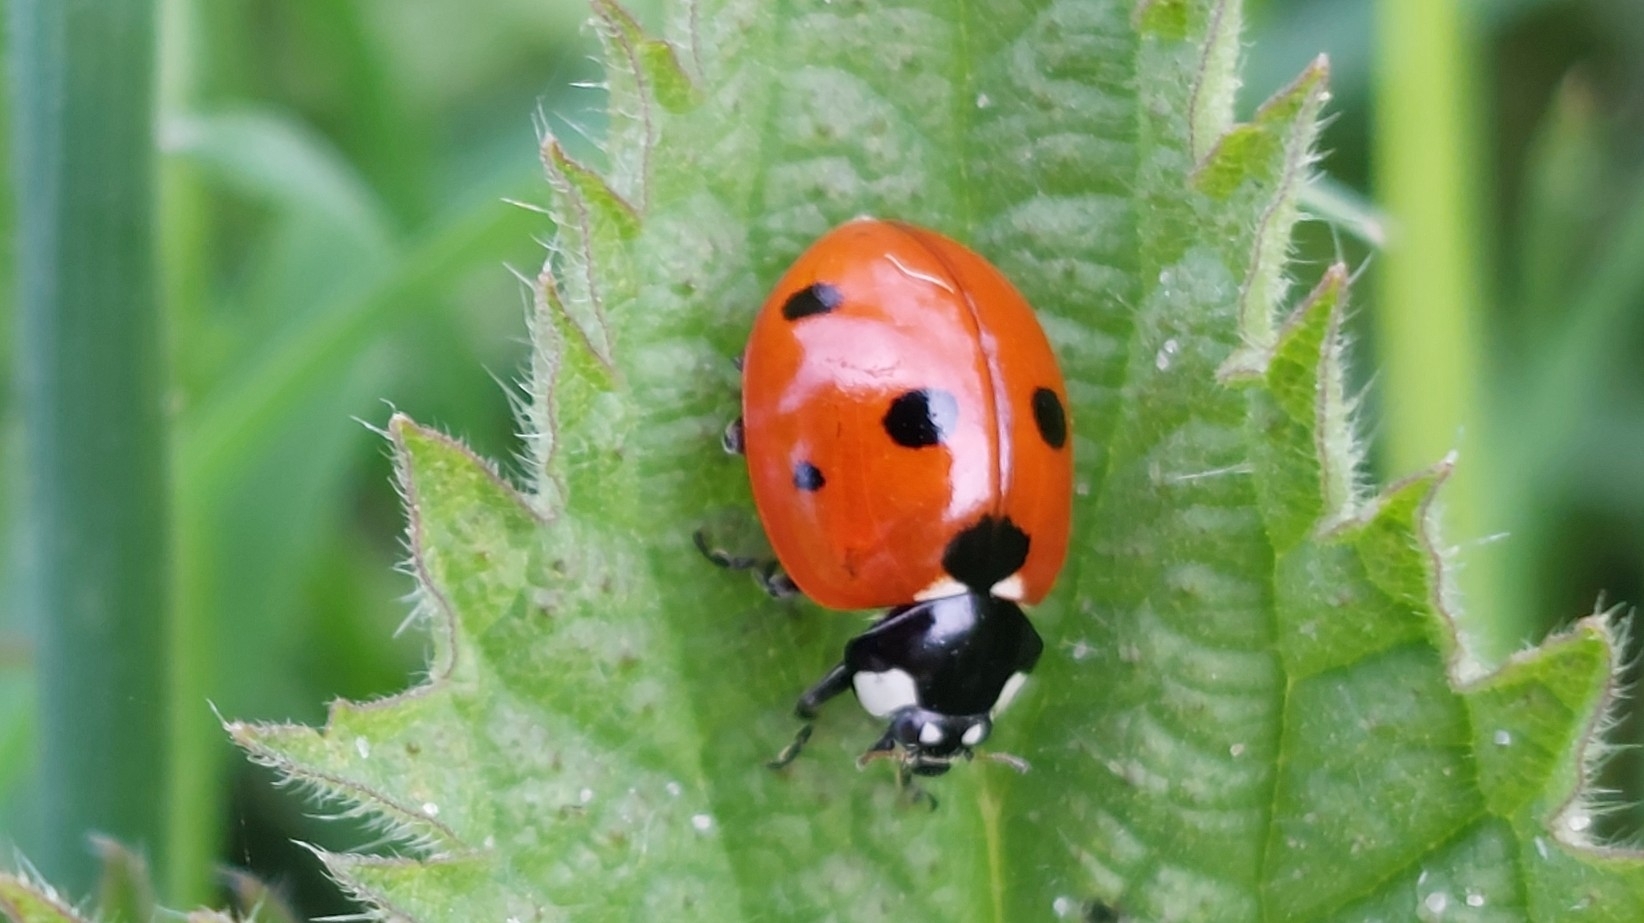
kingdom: Animalia
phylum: Arthropoda
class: Insecta
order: Coleoptera
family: Coccinellidae
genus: Coccinella
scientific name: Coccinella septempunctata
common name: Sevenspotted lady beetle
